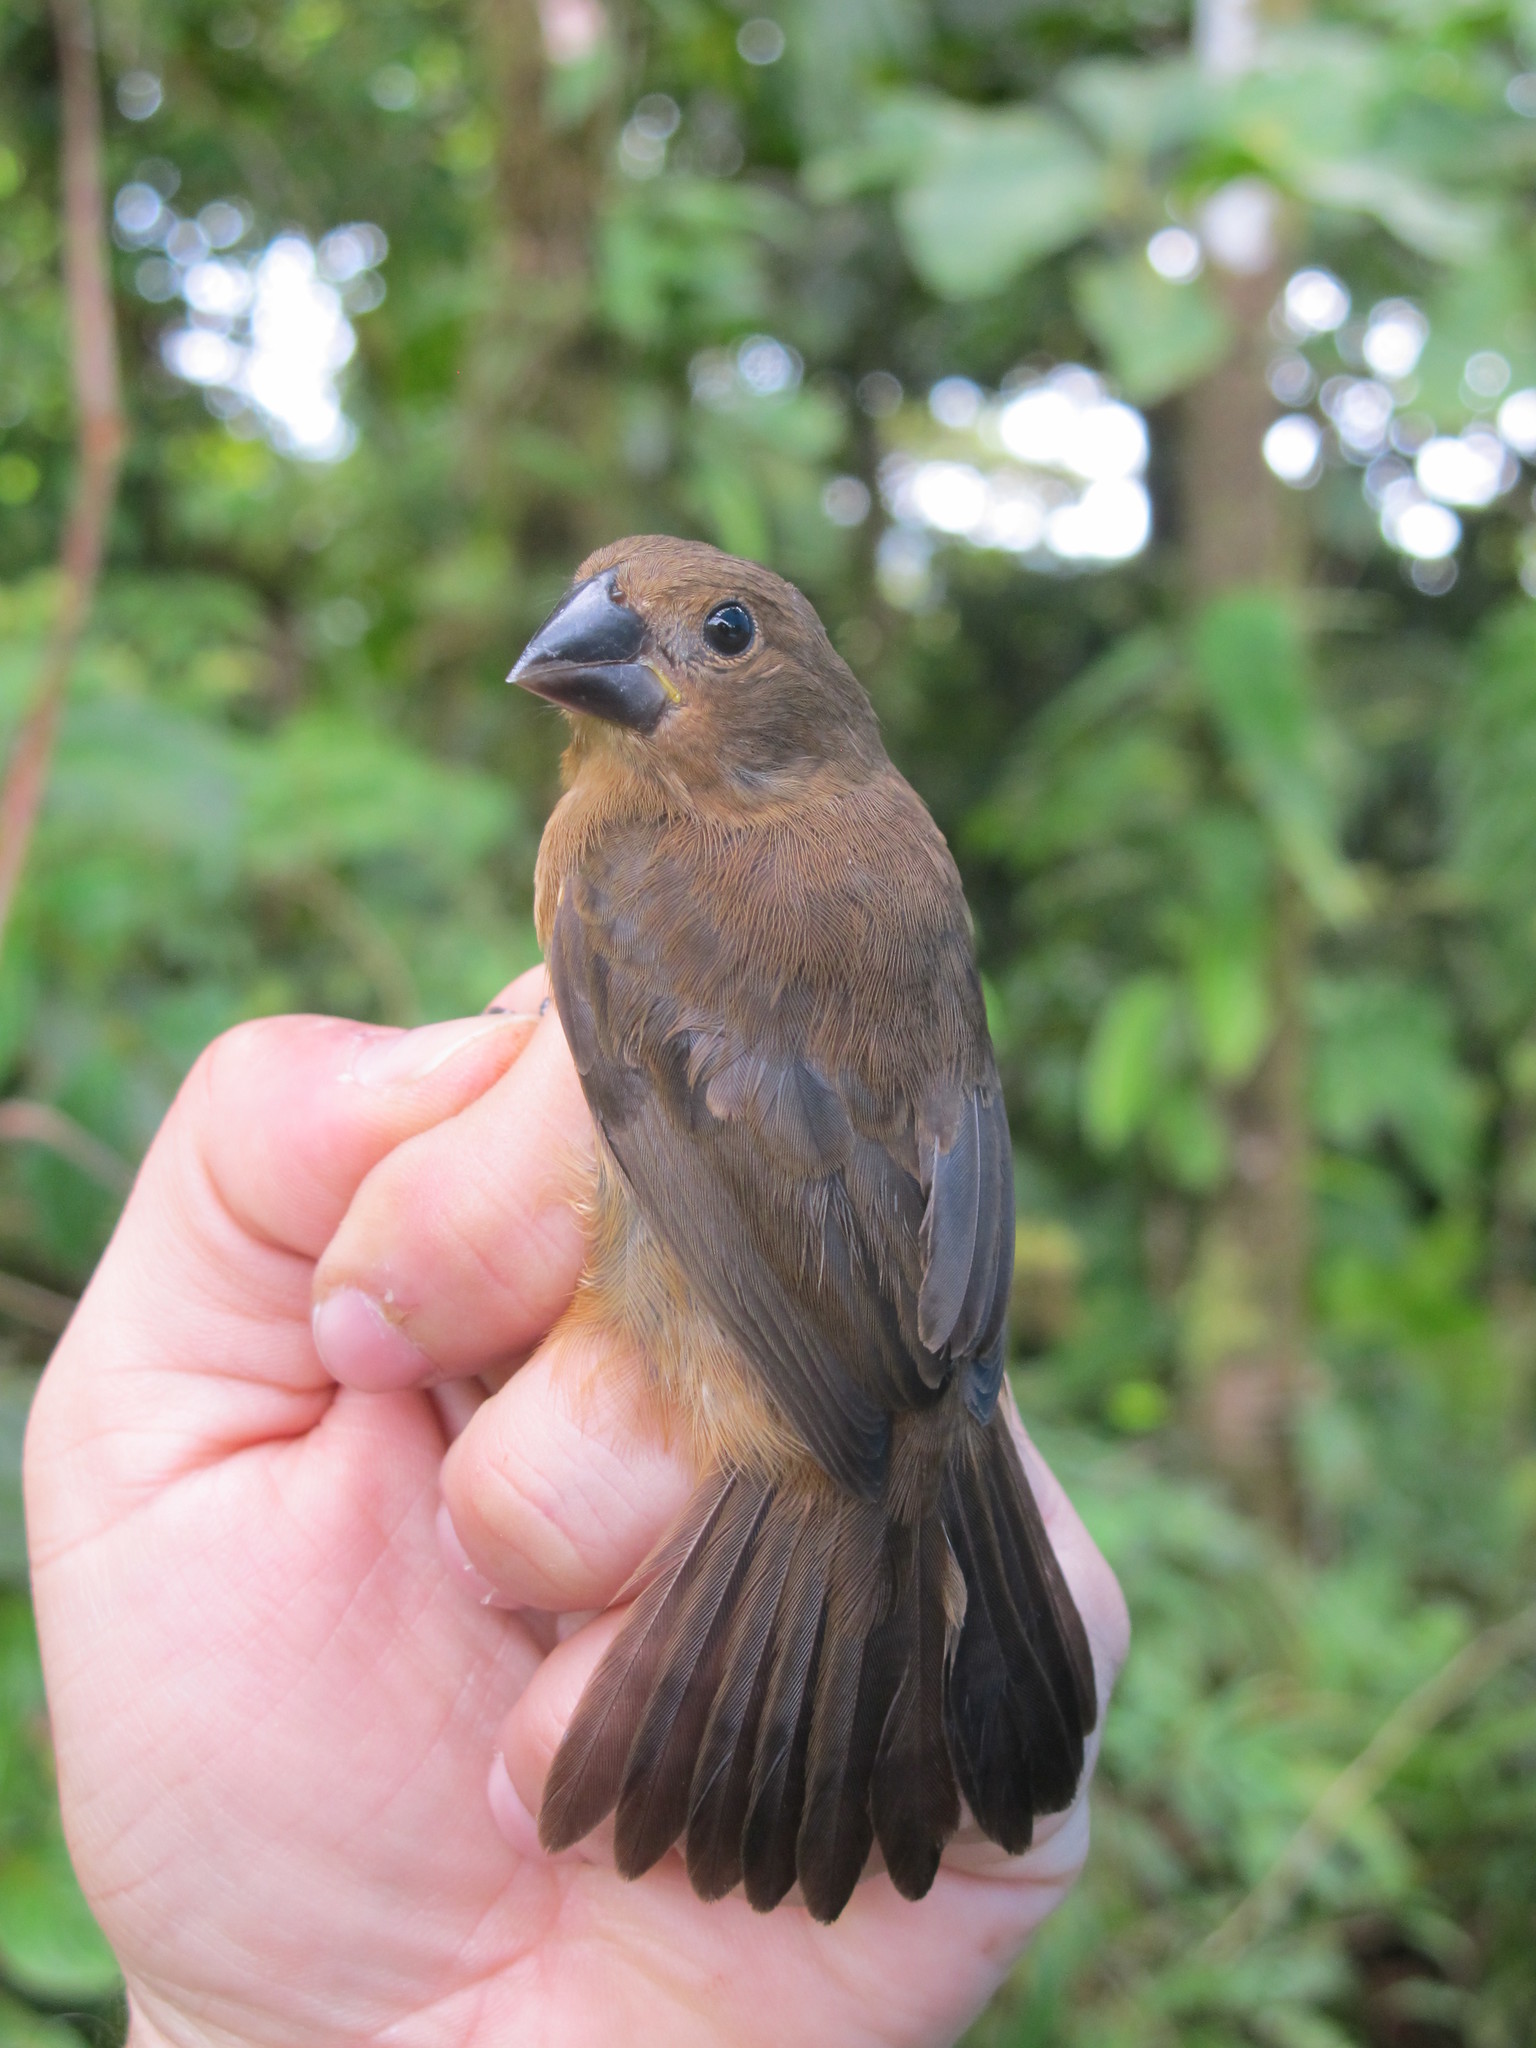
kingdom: Animalia
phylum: Chordata
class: Aves
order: Passeriformes
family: Thraupidae
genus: Sporophila
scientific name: Sporophila funerea
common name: Thick-billed seed-finch
